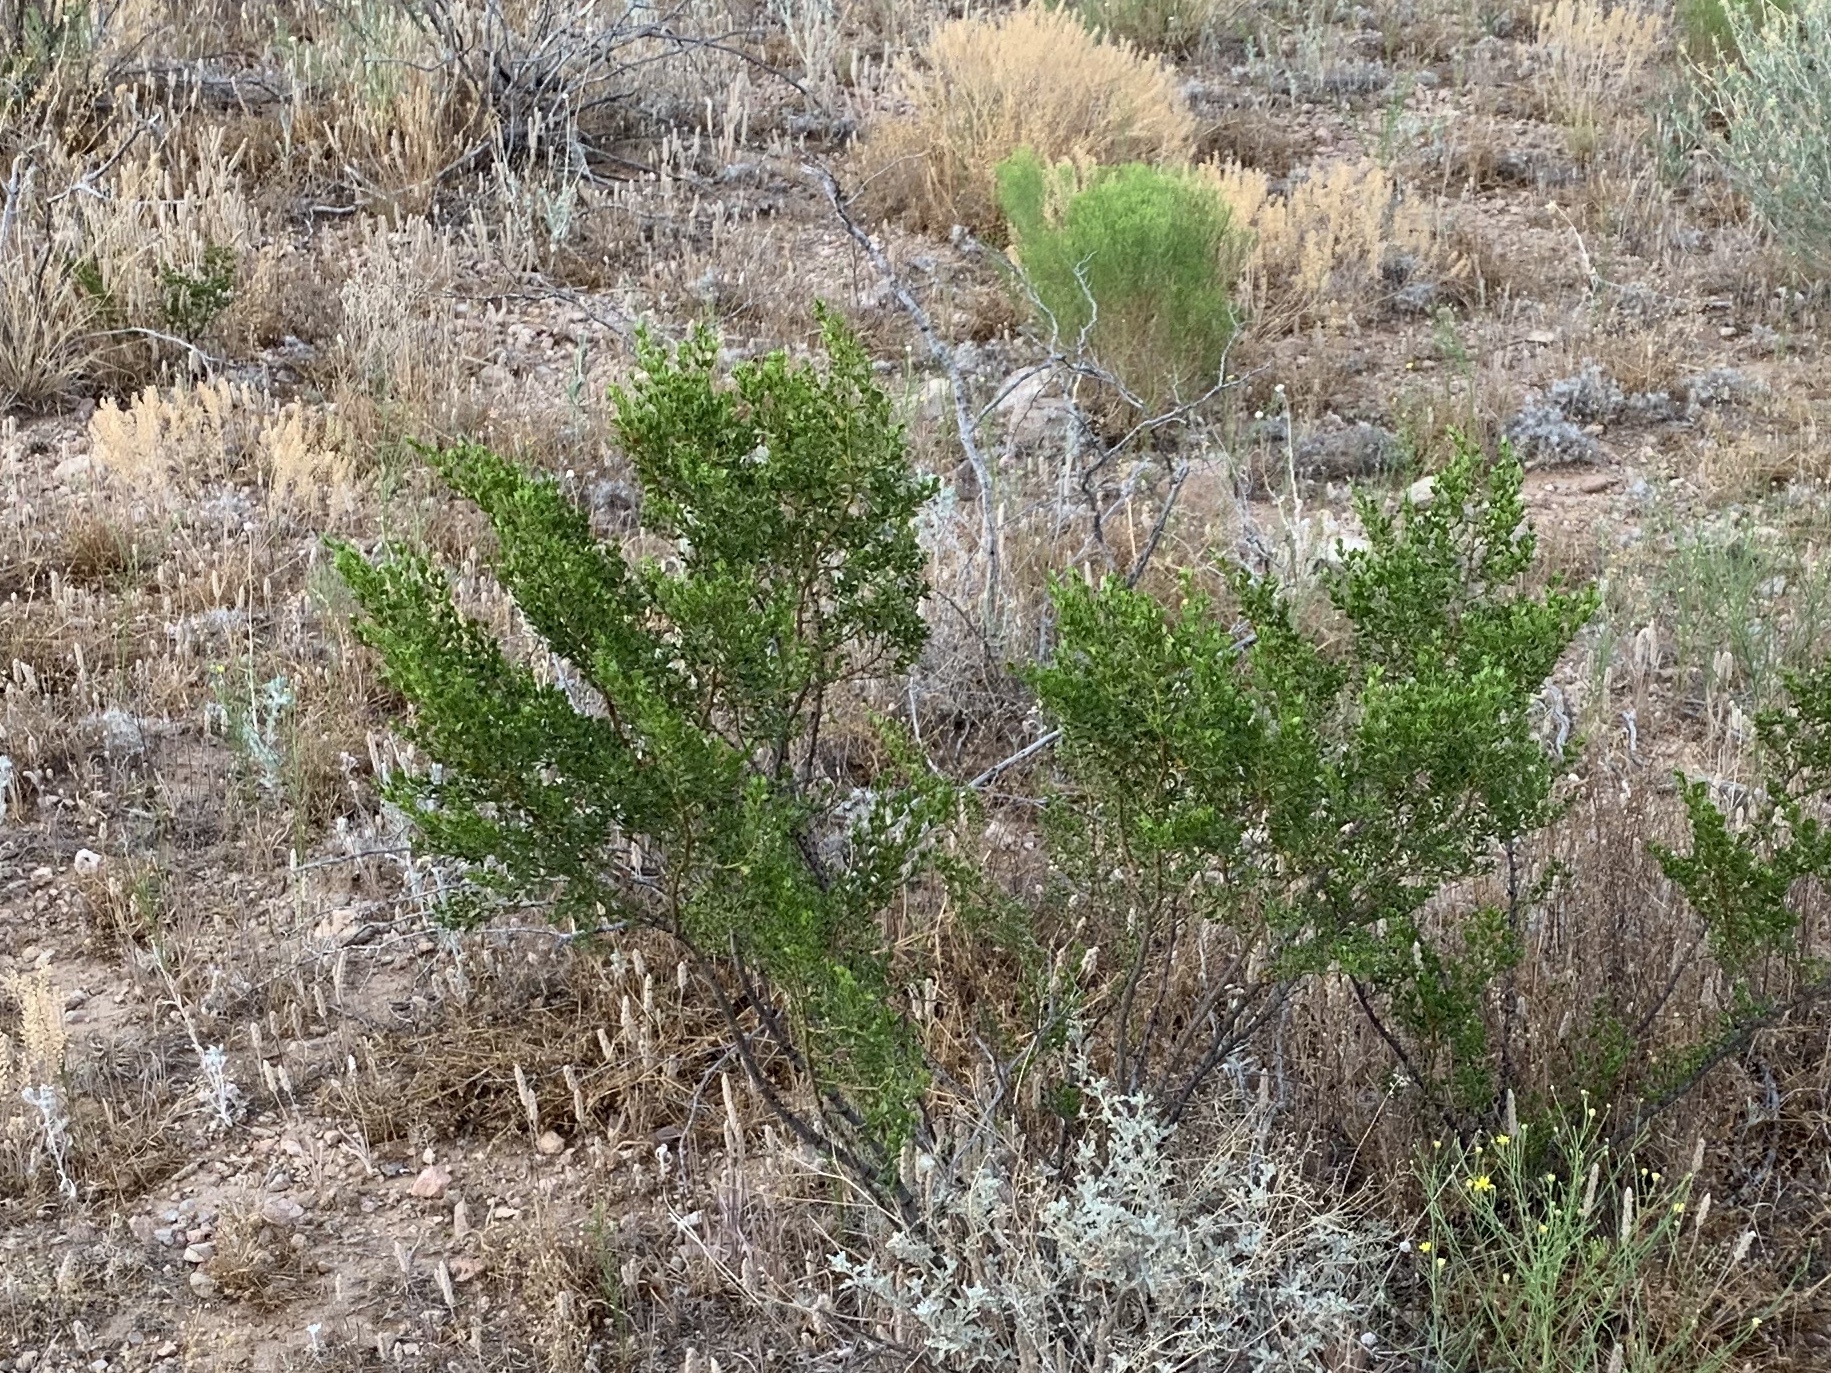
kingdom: Plantae
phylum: Tracheophyta
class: Magnoliopsida
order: Zygophyllales
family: Zygophyllaceae
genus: Larrea
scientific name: Larrea tridentata
